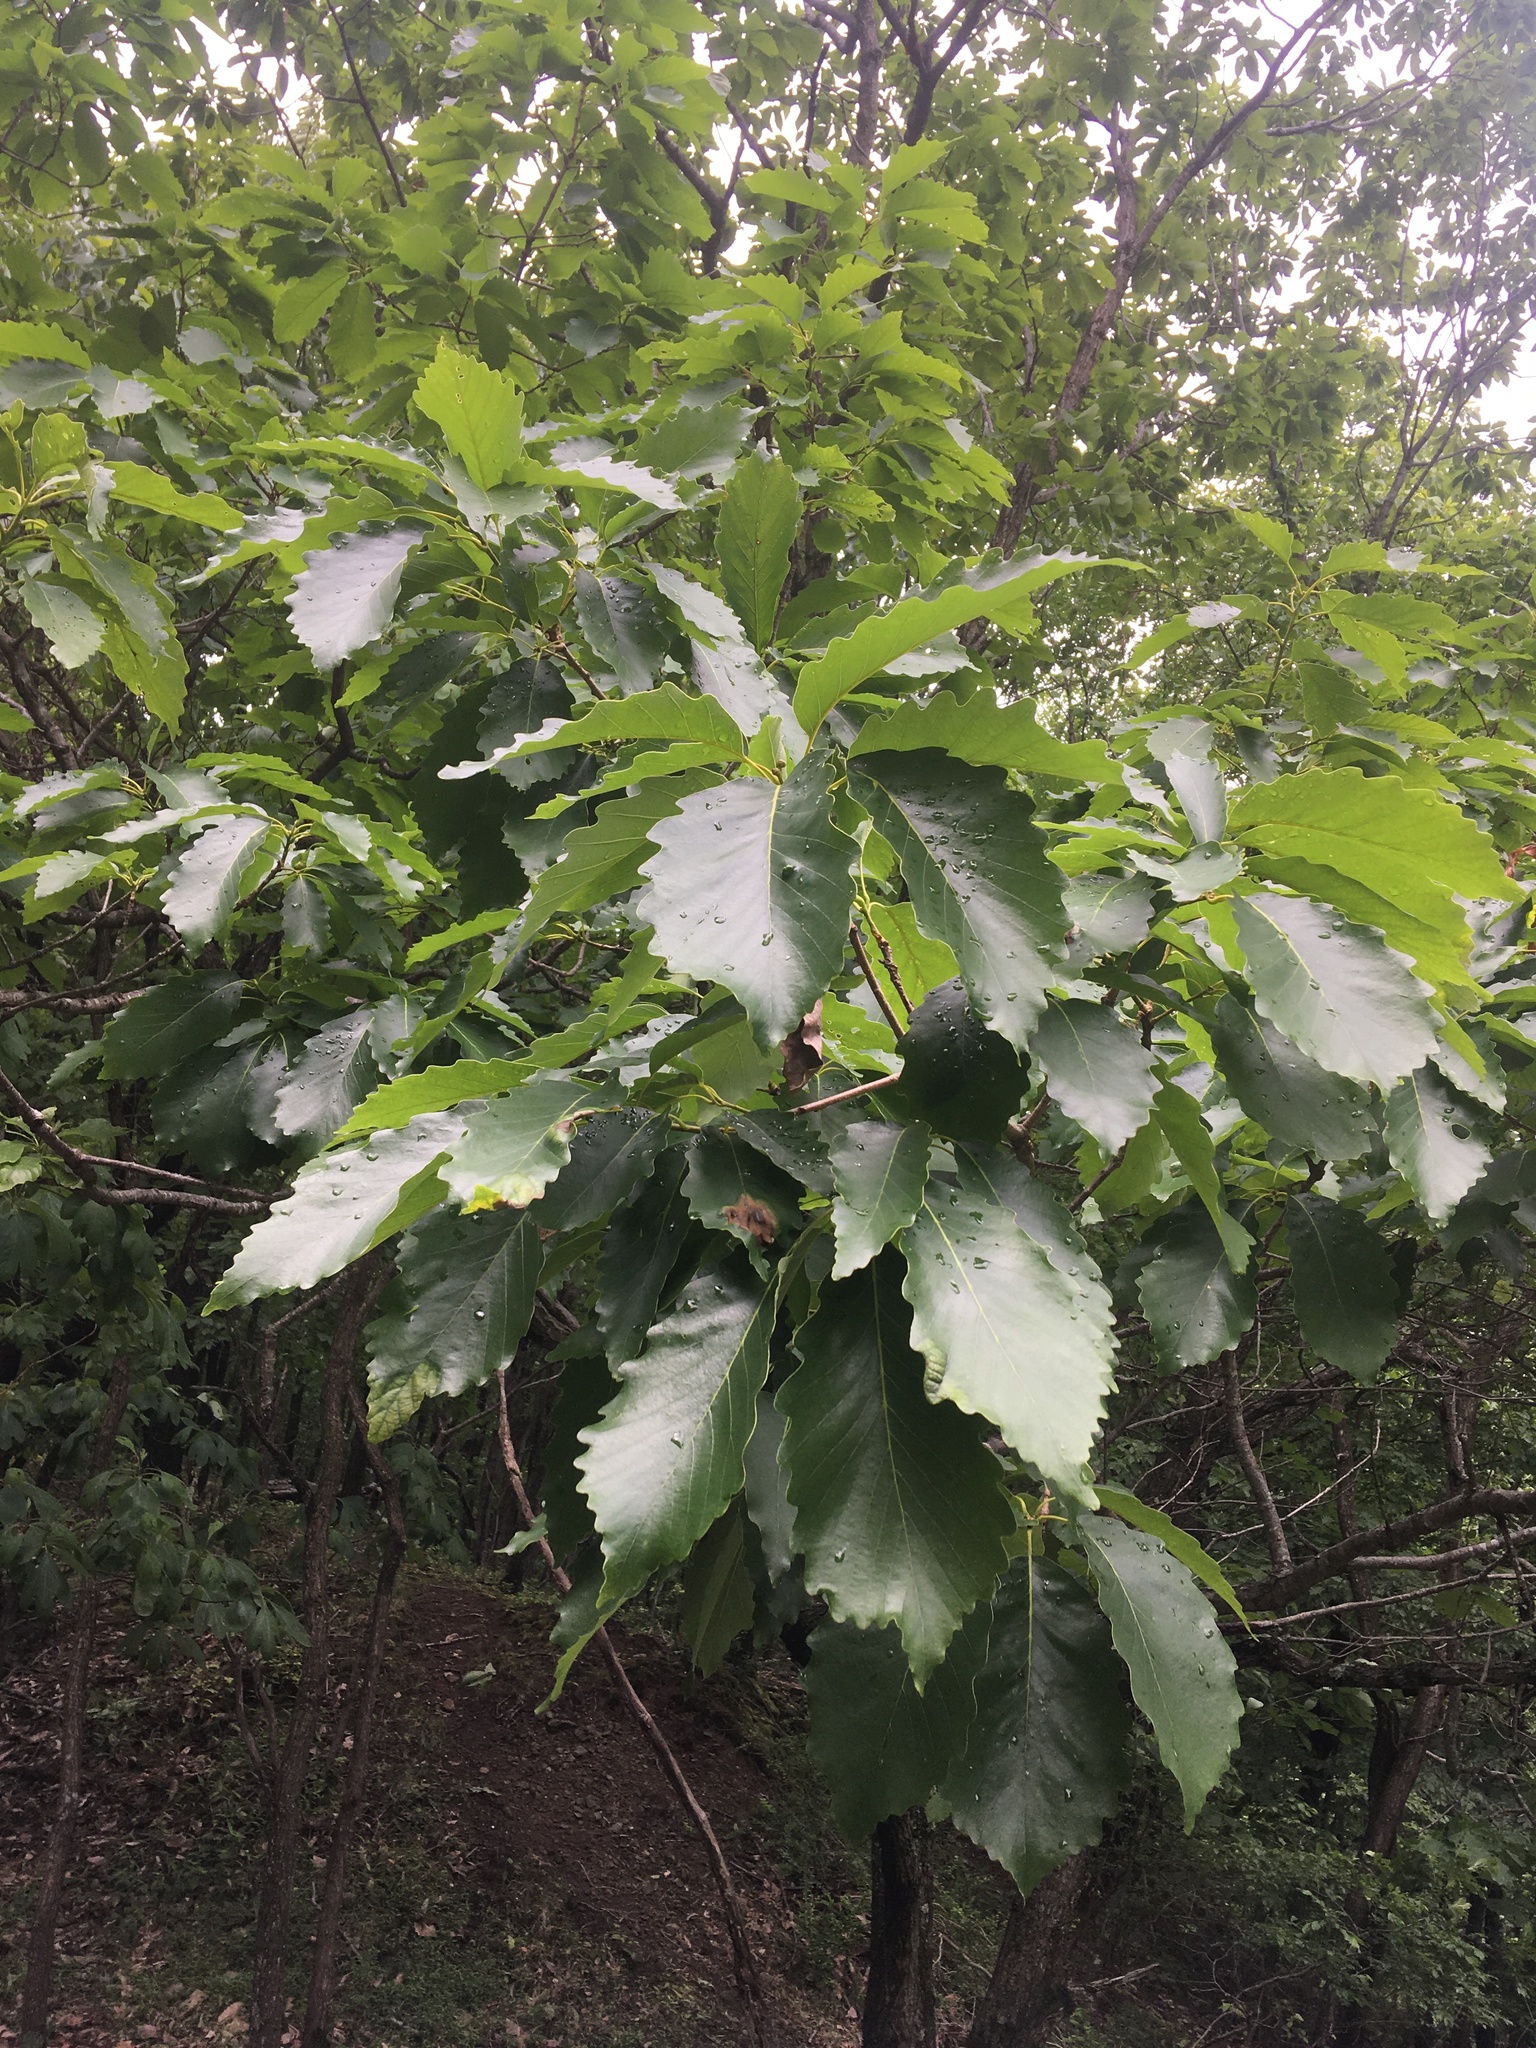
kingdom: Plantae
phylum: Tracheophyta
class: Magnoliopsida
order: Fagales
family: Fagaceae
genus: Quercus
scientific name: Quercus montana
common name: Chestnut oak
